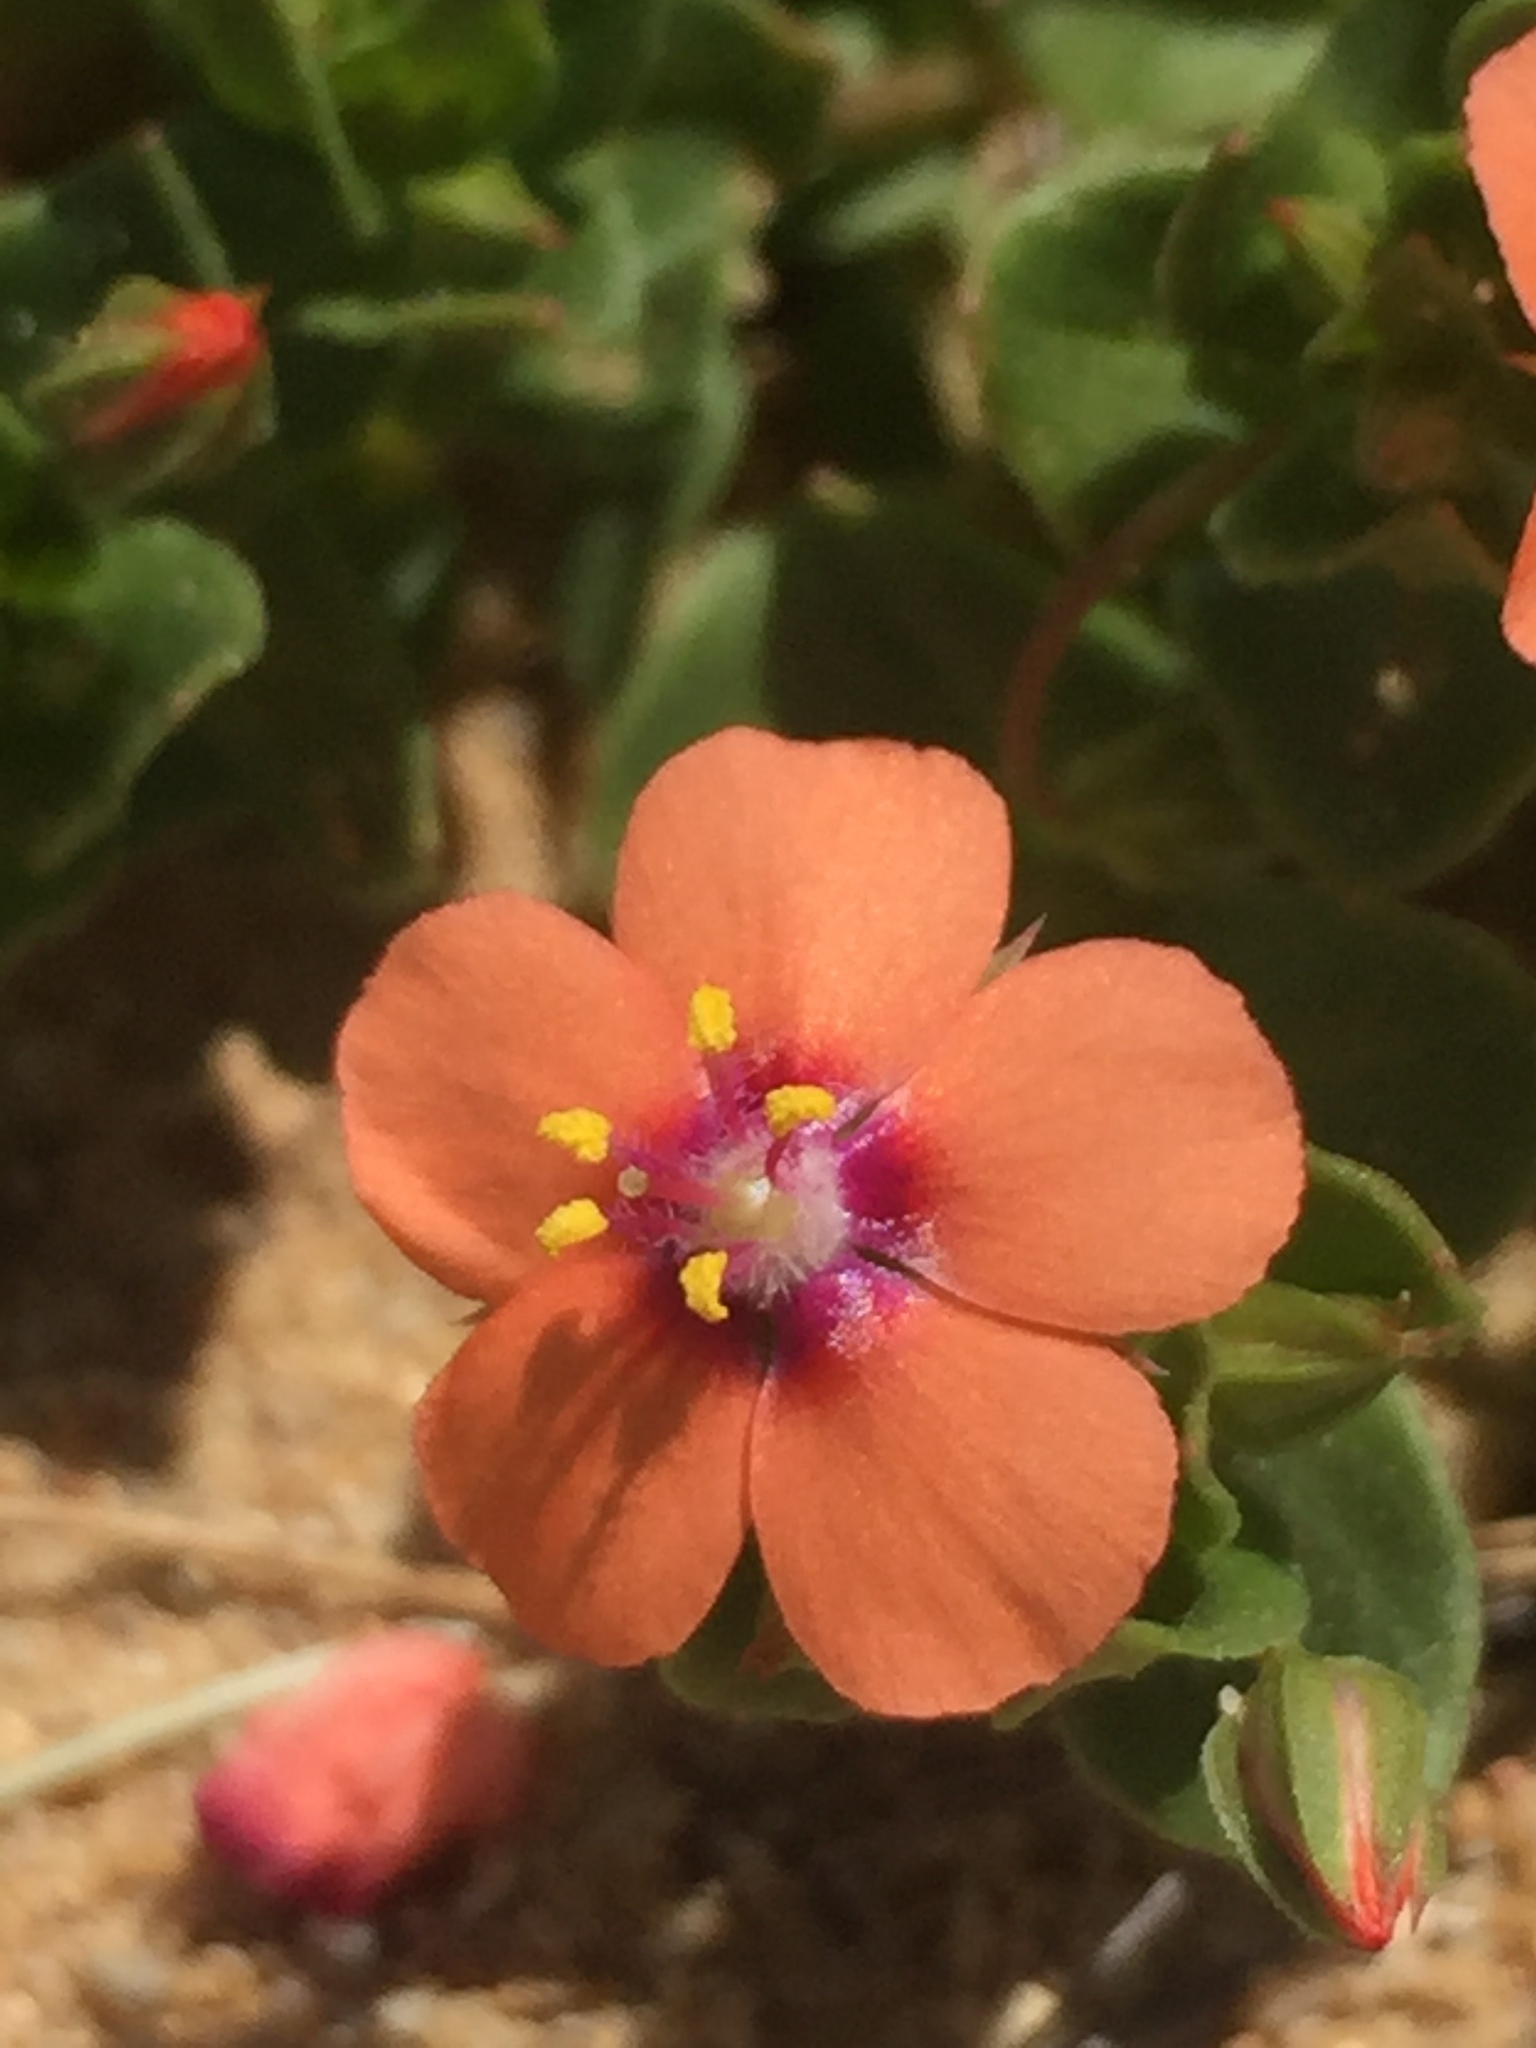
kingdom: Plantae
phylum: Tracheophyta
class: Magnoliopsida
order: Ericales
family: Primulaceae
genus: Lysimachia
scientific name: Lysimachia arvensis
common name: Scarlet pimpernel
